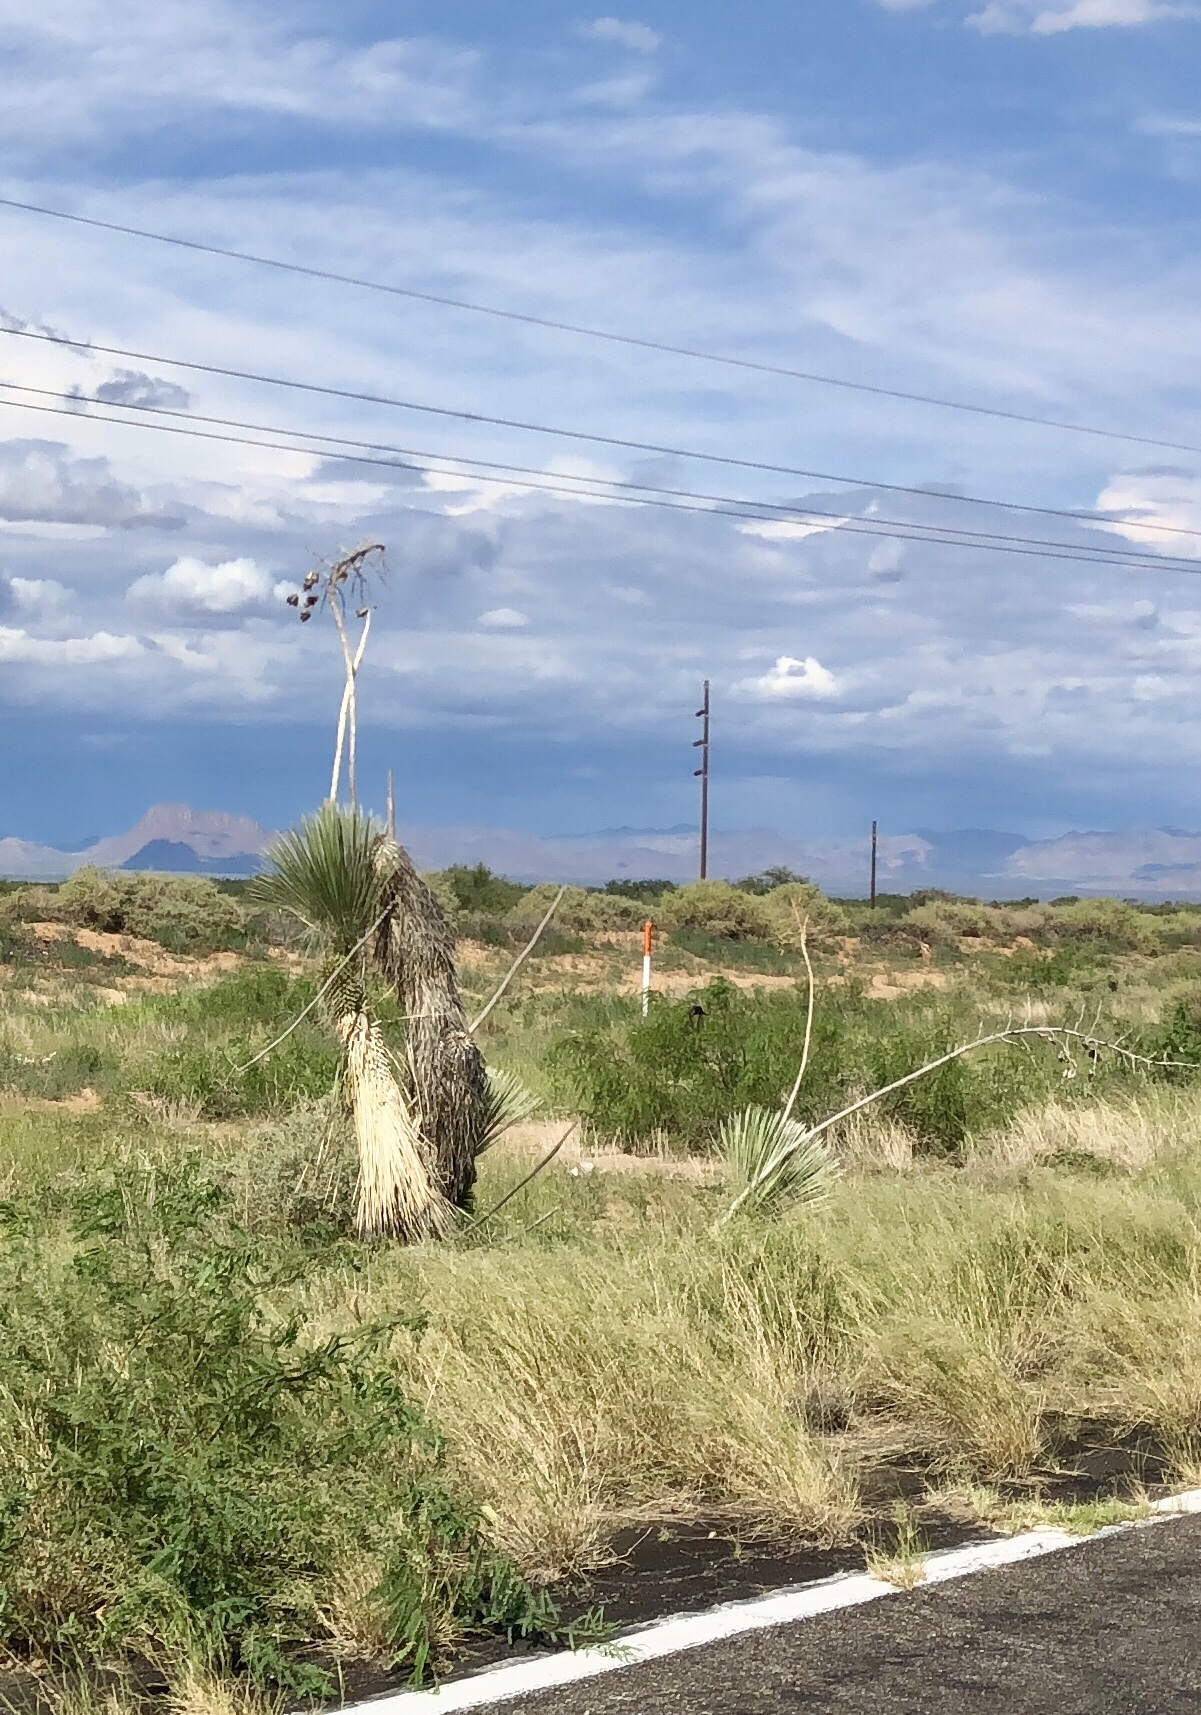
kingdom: Plantae
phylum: Tracheophyta
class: Liliopsida
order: Asparagales
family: Asparagaceae
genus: Yucca
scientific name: Yucca elata
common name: Palmella
